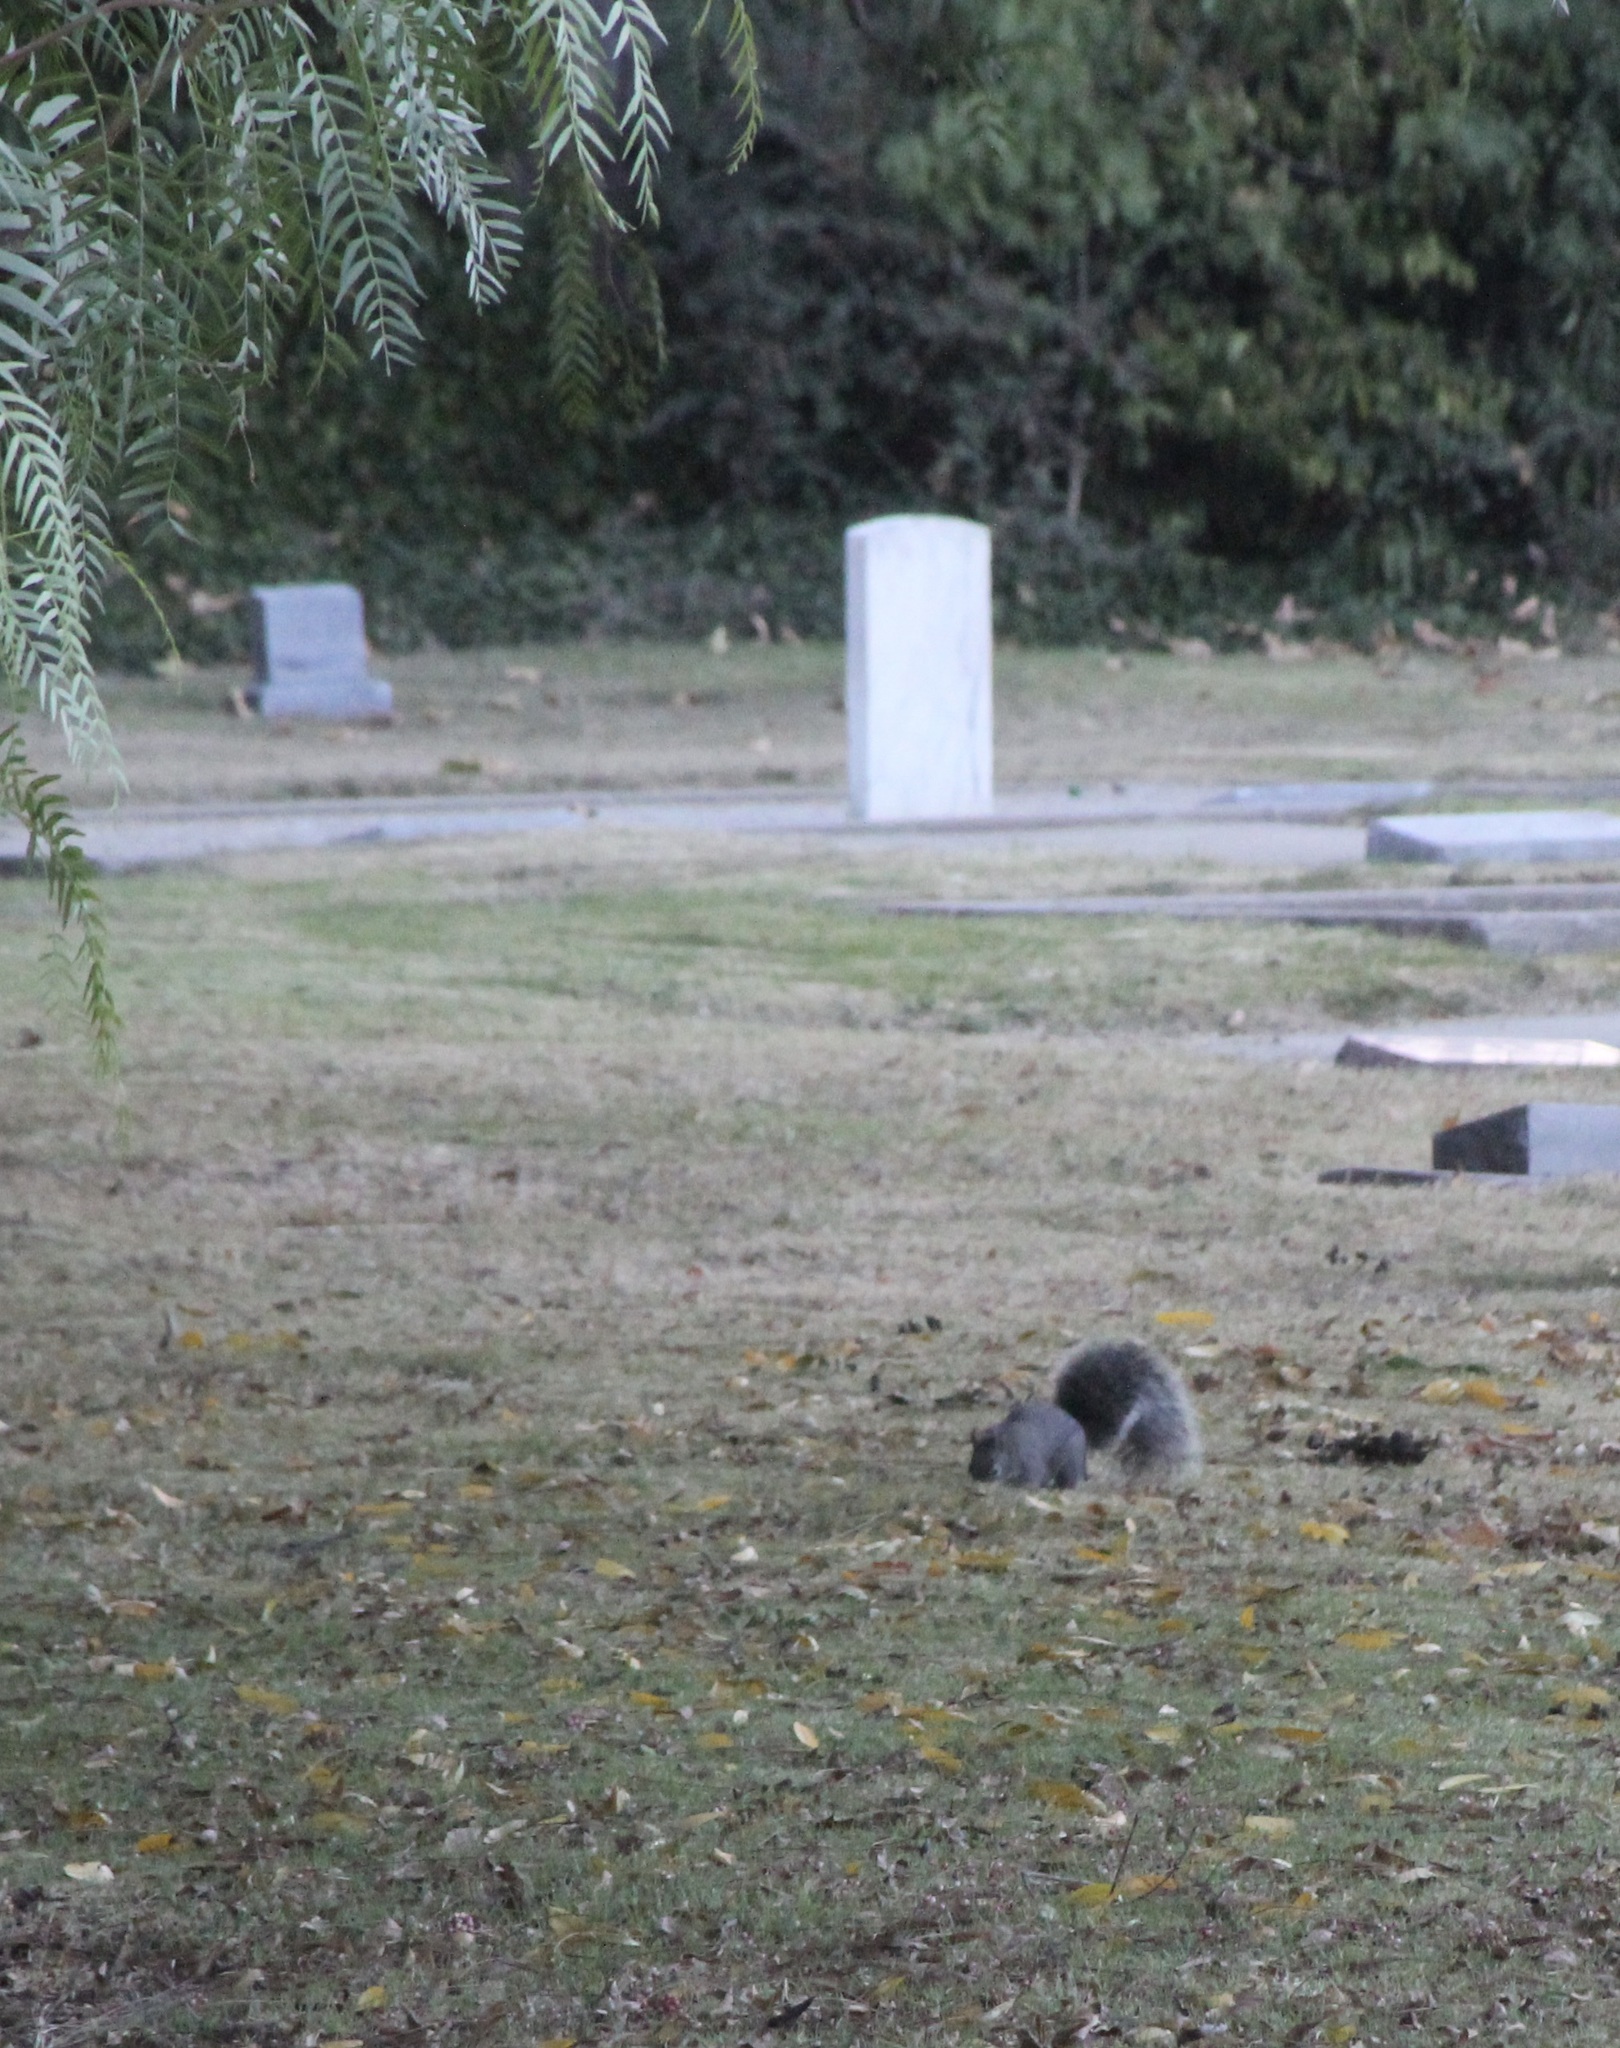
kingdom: Animalia
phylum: Chordata
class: Mammalia
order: Rodentia
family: Sciuridae
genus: Sciurus
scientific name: Sciurus griseus
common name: Western gray squirrel
